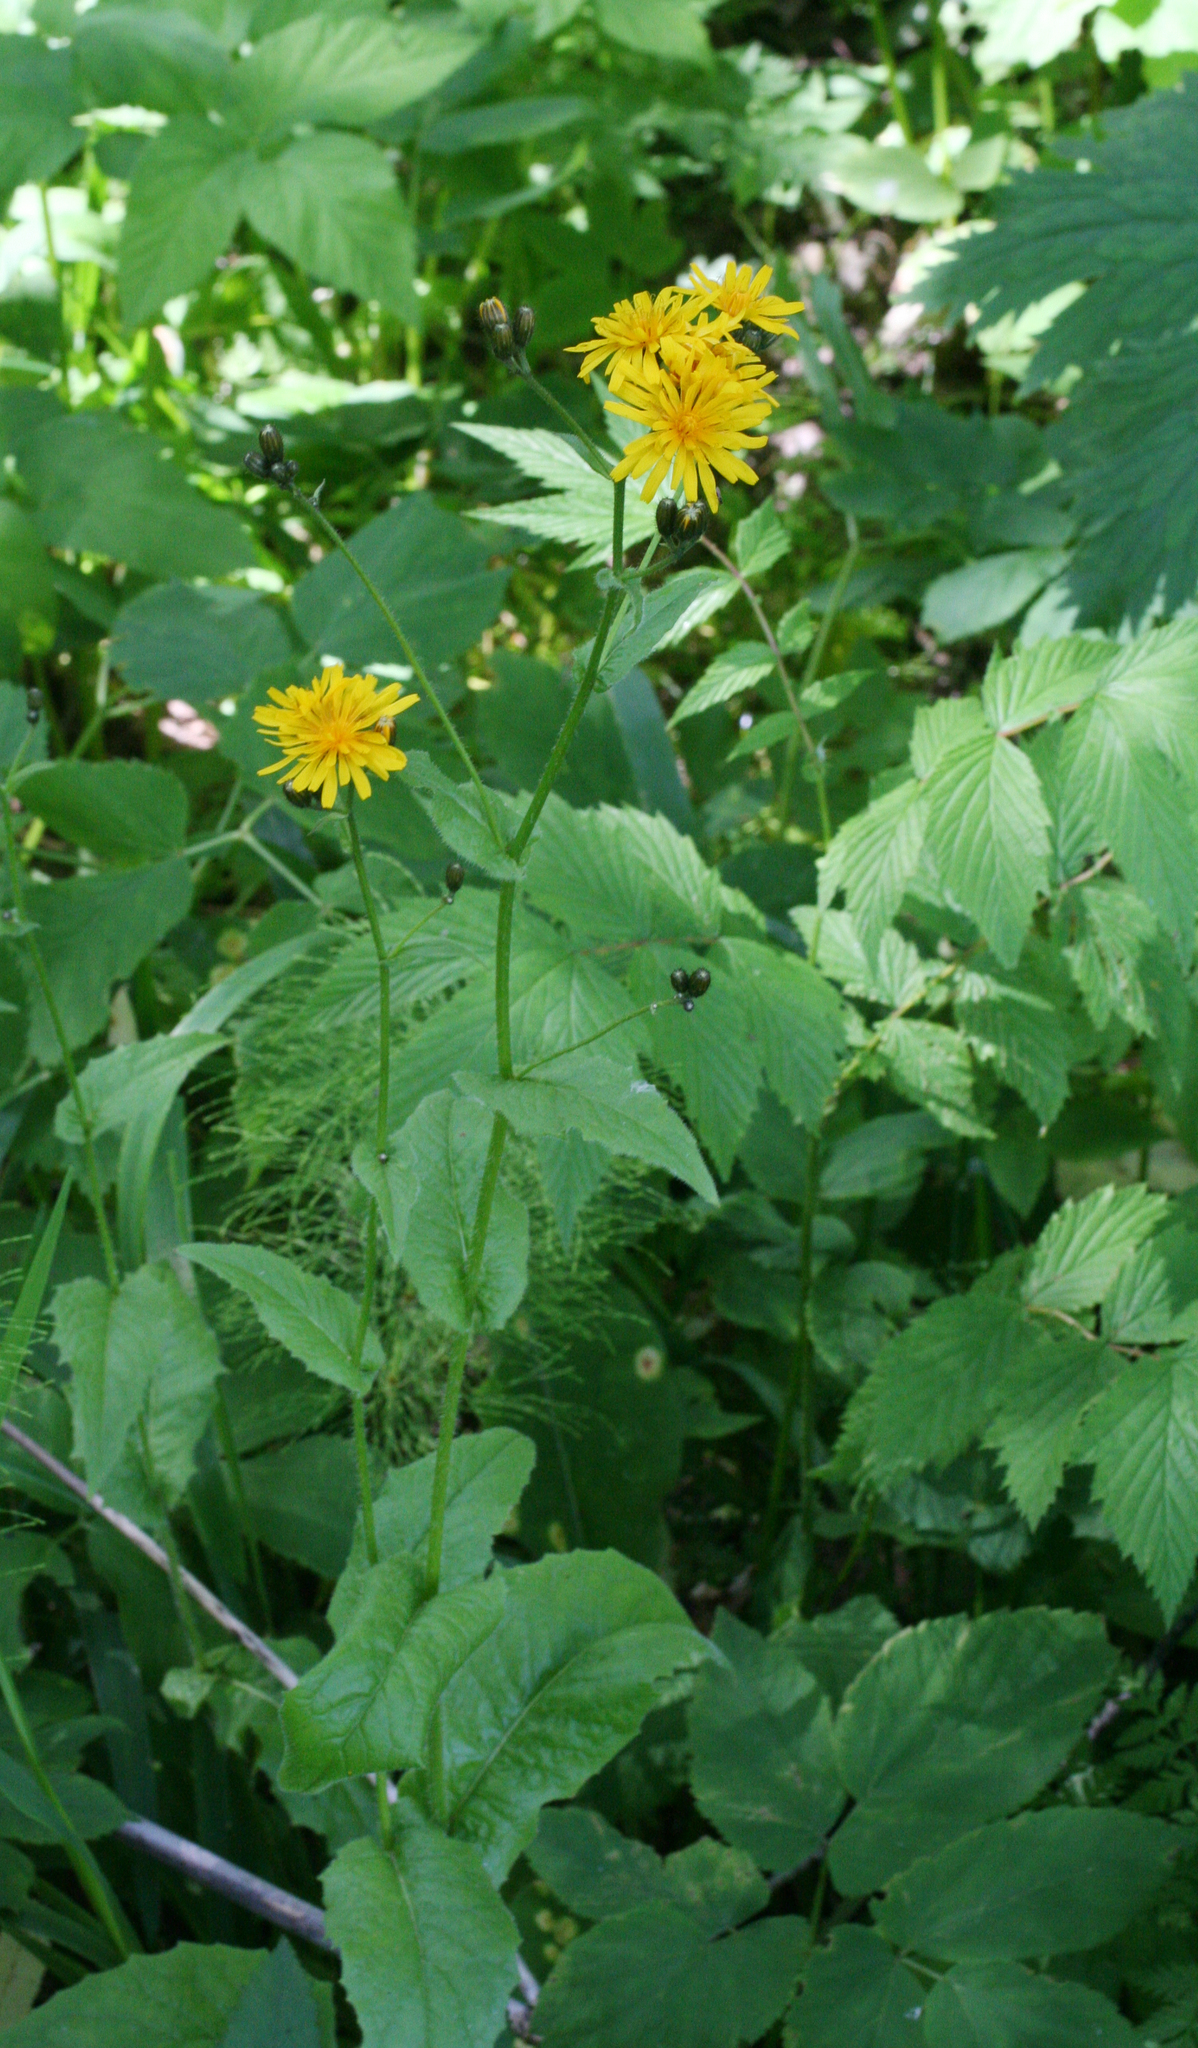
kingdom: Plantae
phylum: Tracheophyta
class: Magnoliopsida
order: Asterales
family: Asteraceae
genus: Crepis
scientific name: Crepis sibirica
